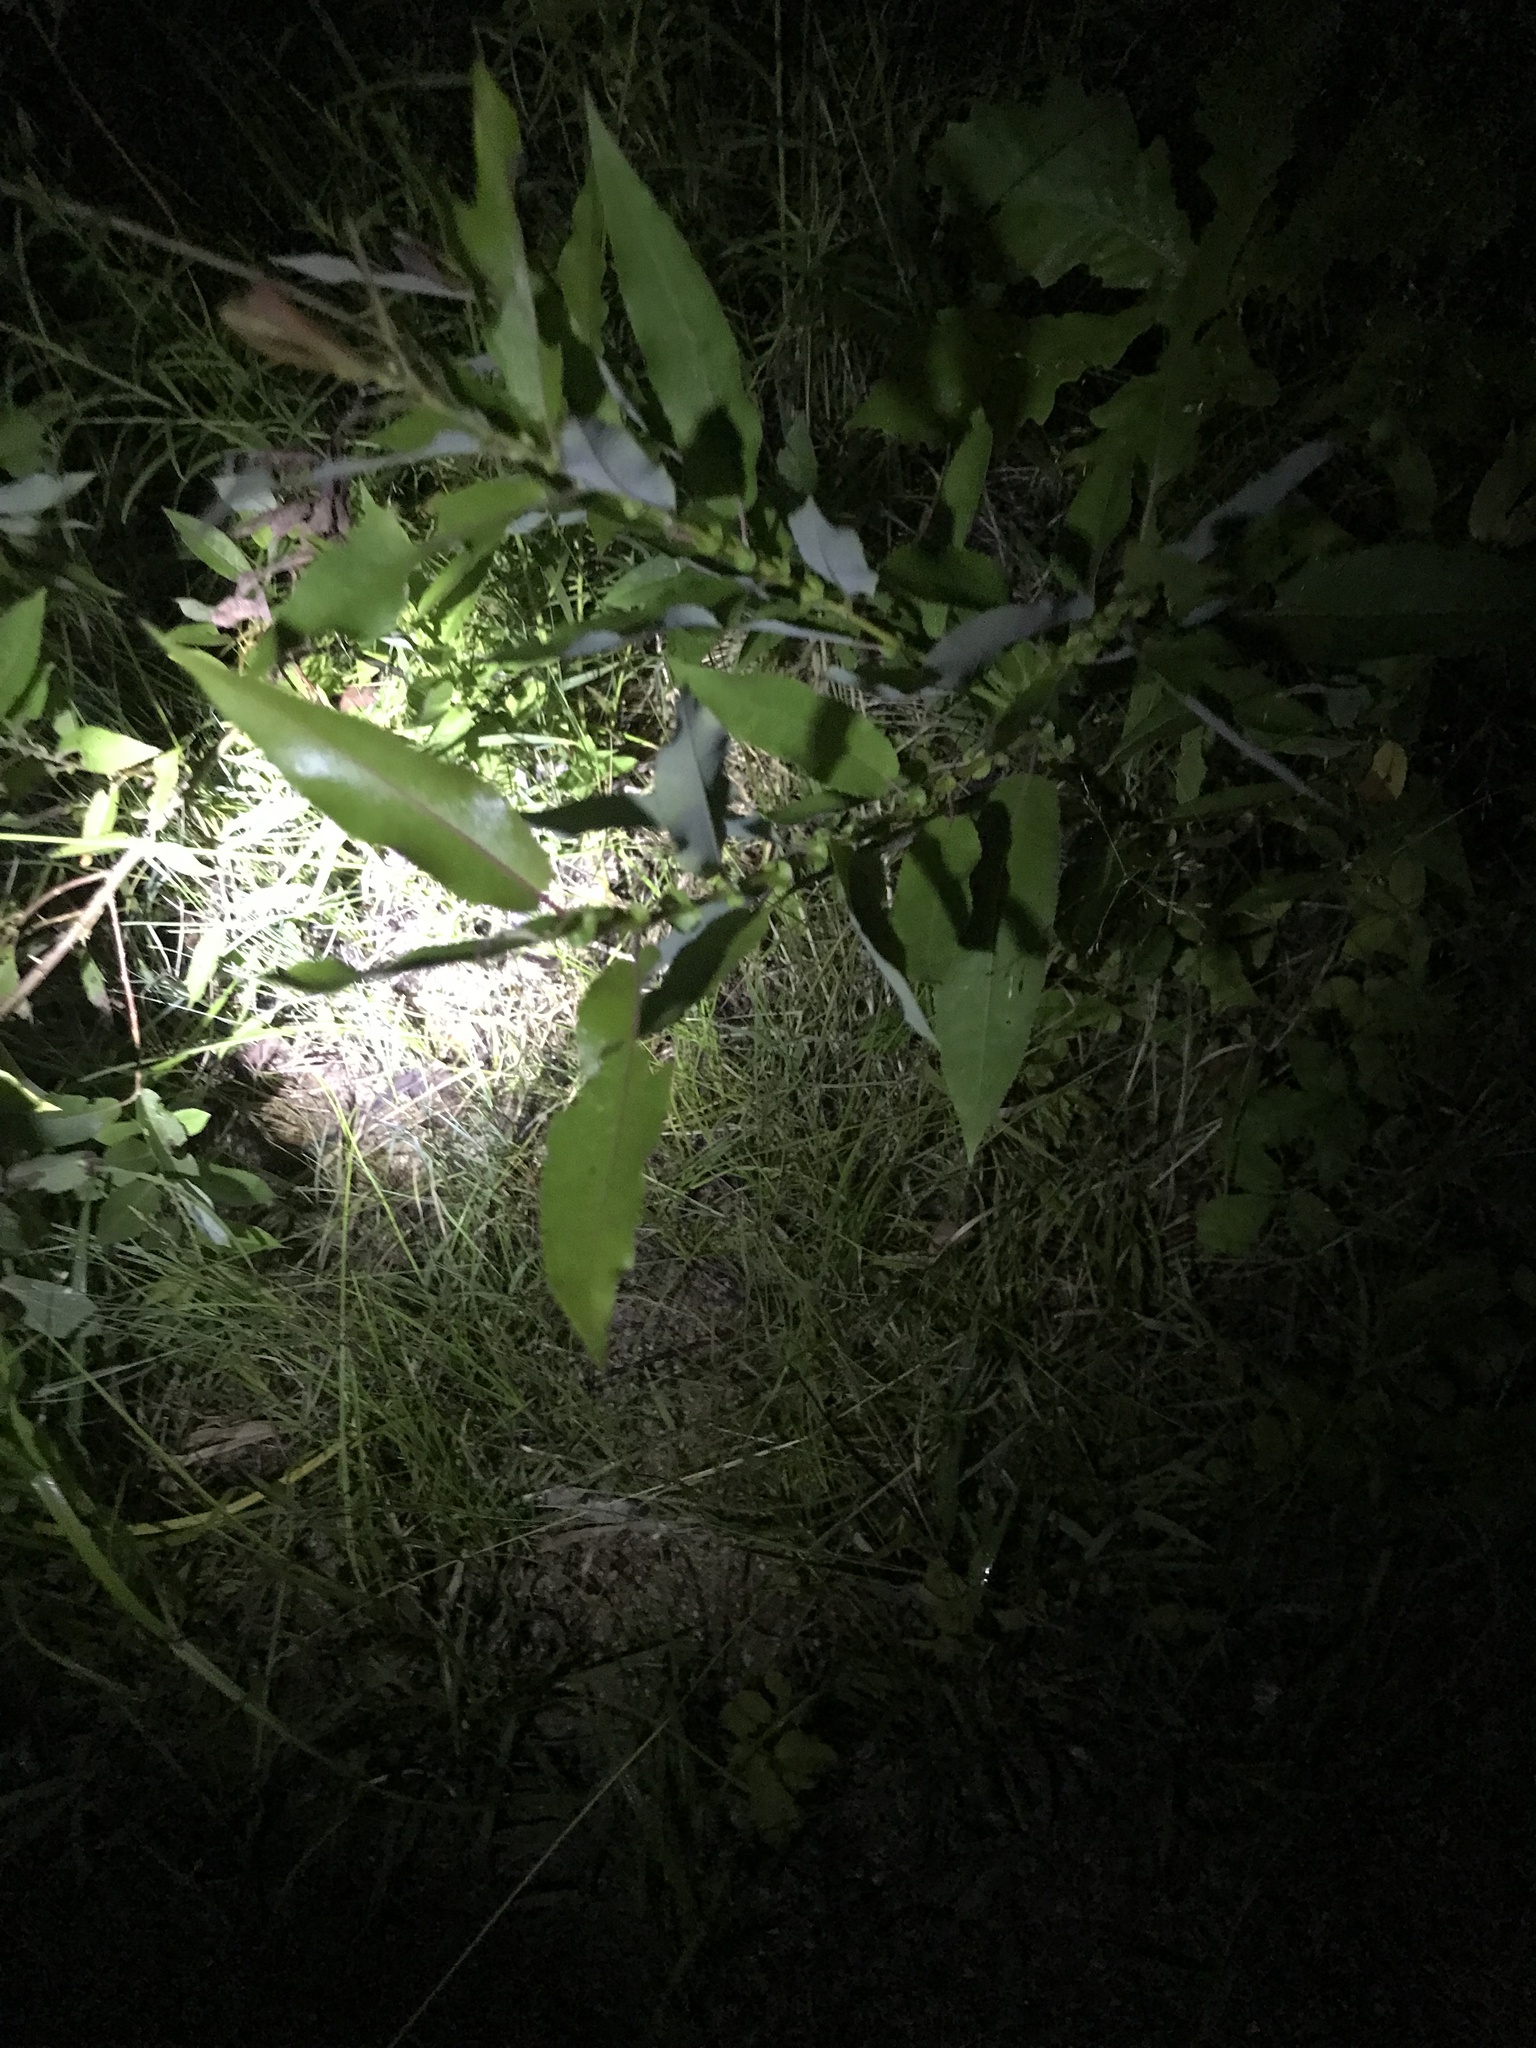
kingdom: Plantae
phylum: Tracheophyta
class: Magnoliopsida
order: Malpighiales
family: Salicaceae
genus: Salix
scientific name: Salix eriocephala
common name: Heart-leaved willow
